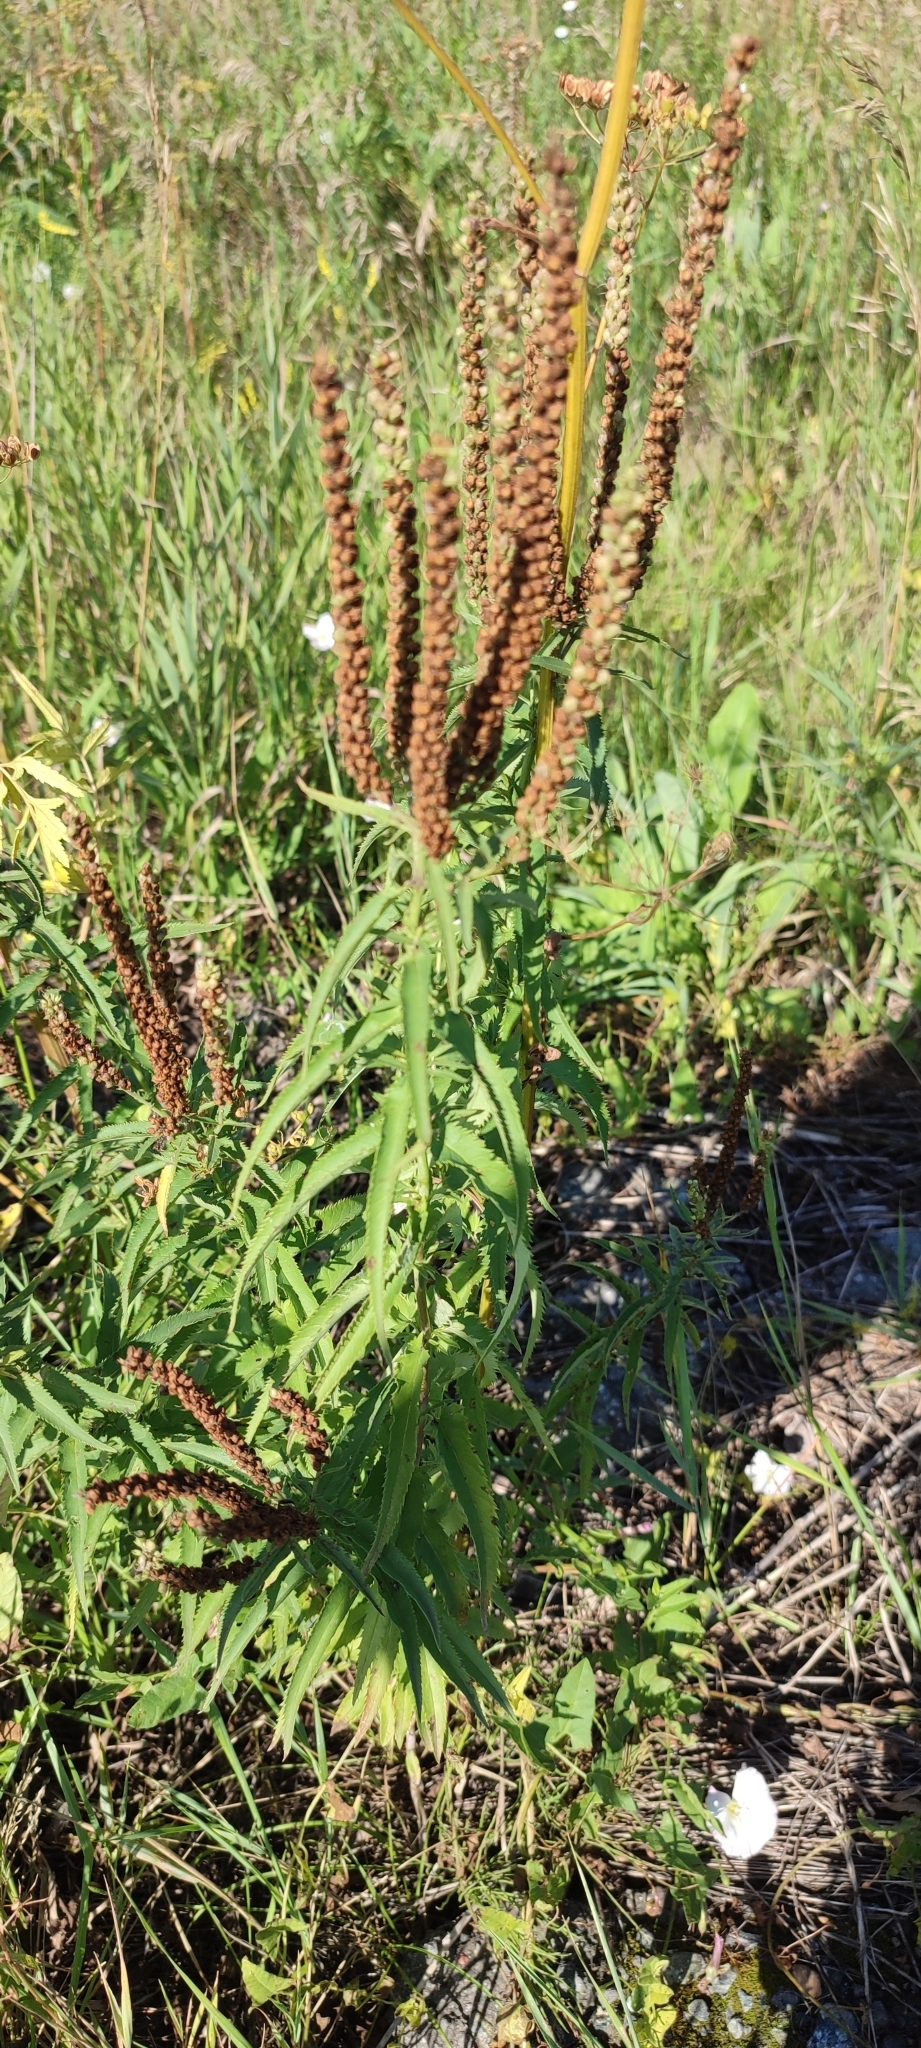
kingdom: Plantae
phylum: Tracheophyta
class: Magnoliopsida
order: Lamiales
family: Plantaginaceae
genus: Veronica
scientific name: Veronica longifolia
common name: Garden speedwell
